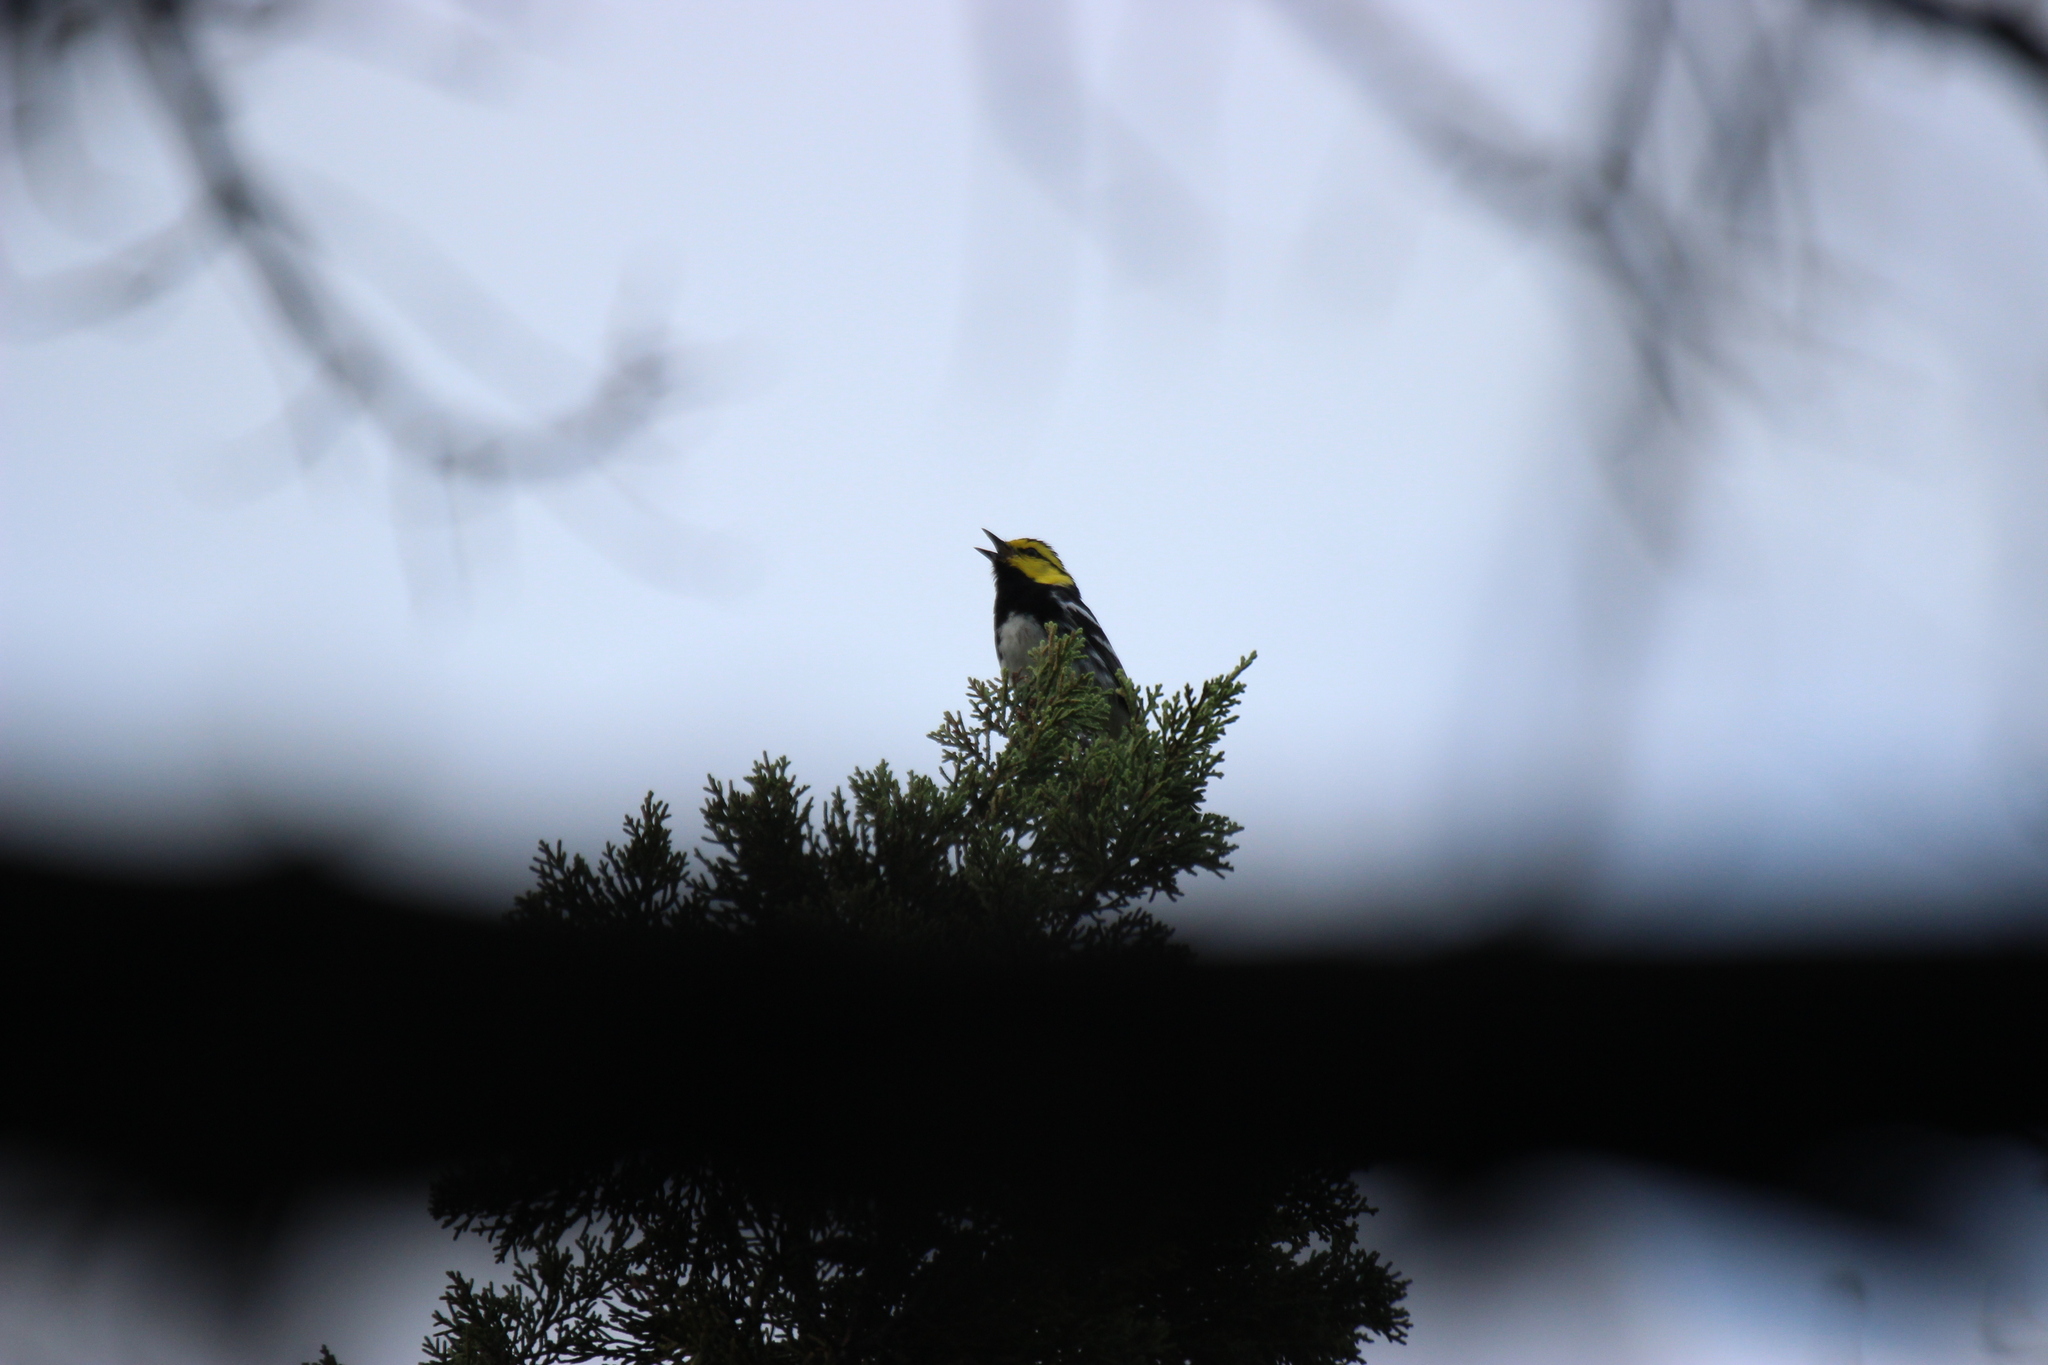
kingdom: Animalia
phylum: Chordata
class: Aves
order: Passeriformes
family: Parulidae
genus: Setophaga
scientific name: Setophaga chrysoparia
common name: Golden-cheeked warbler
